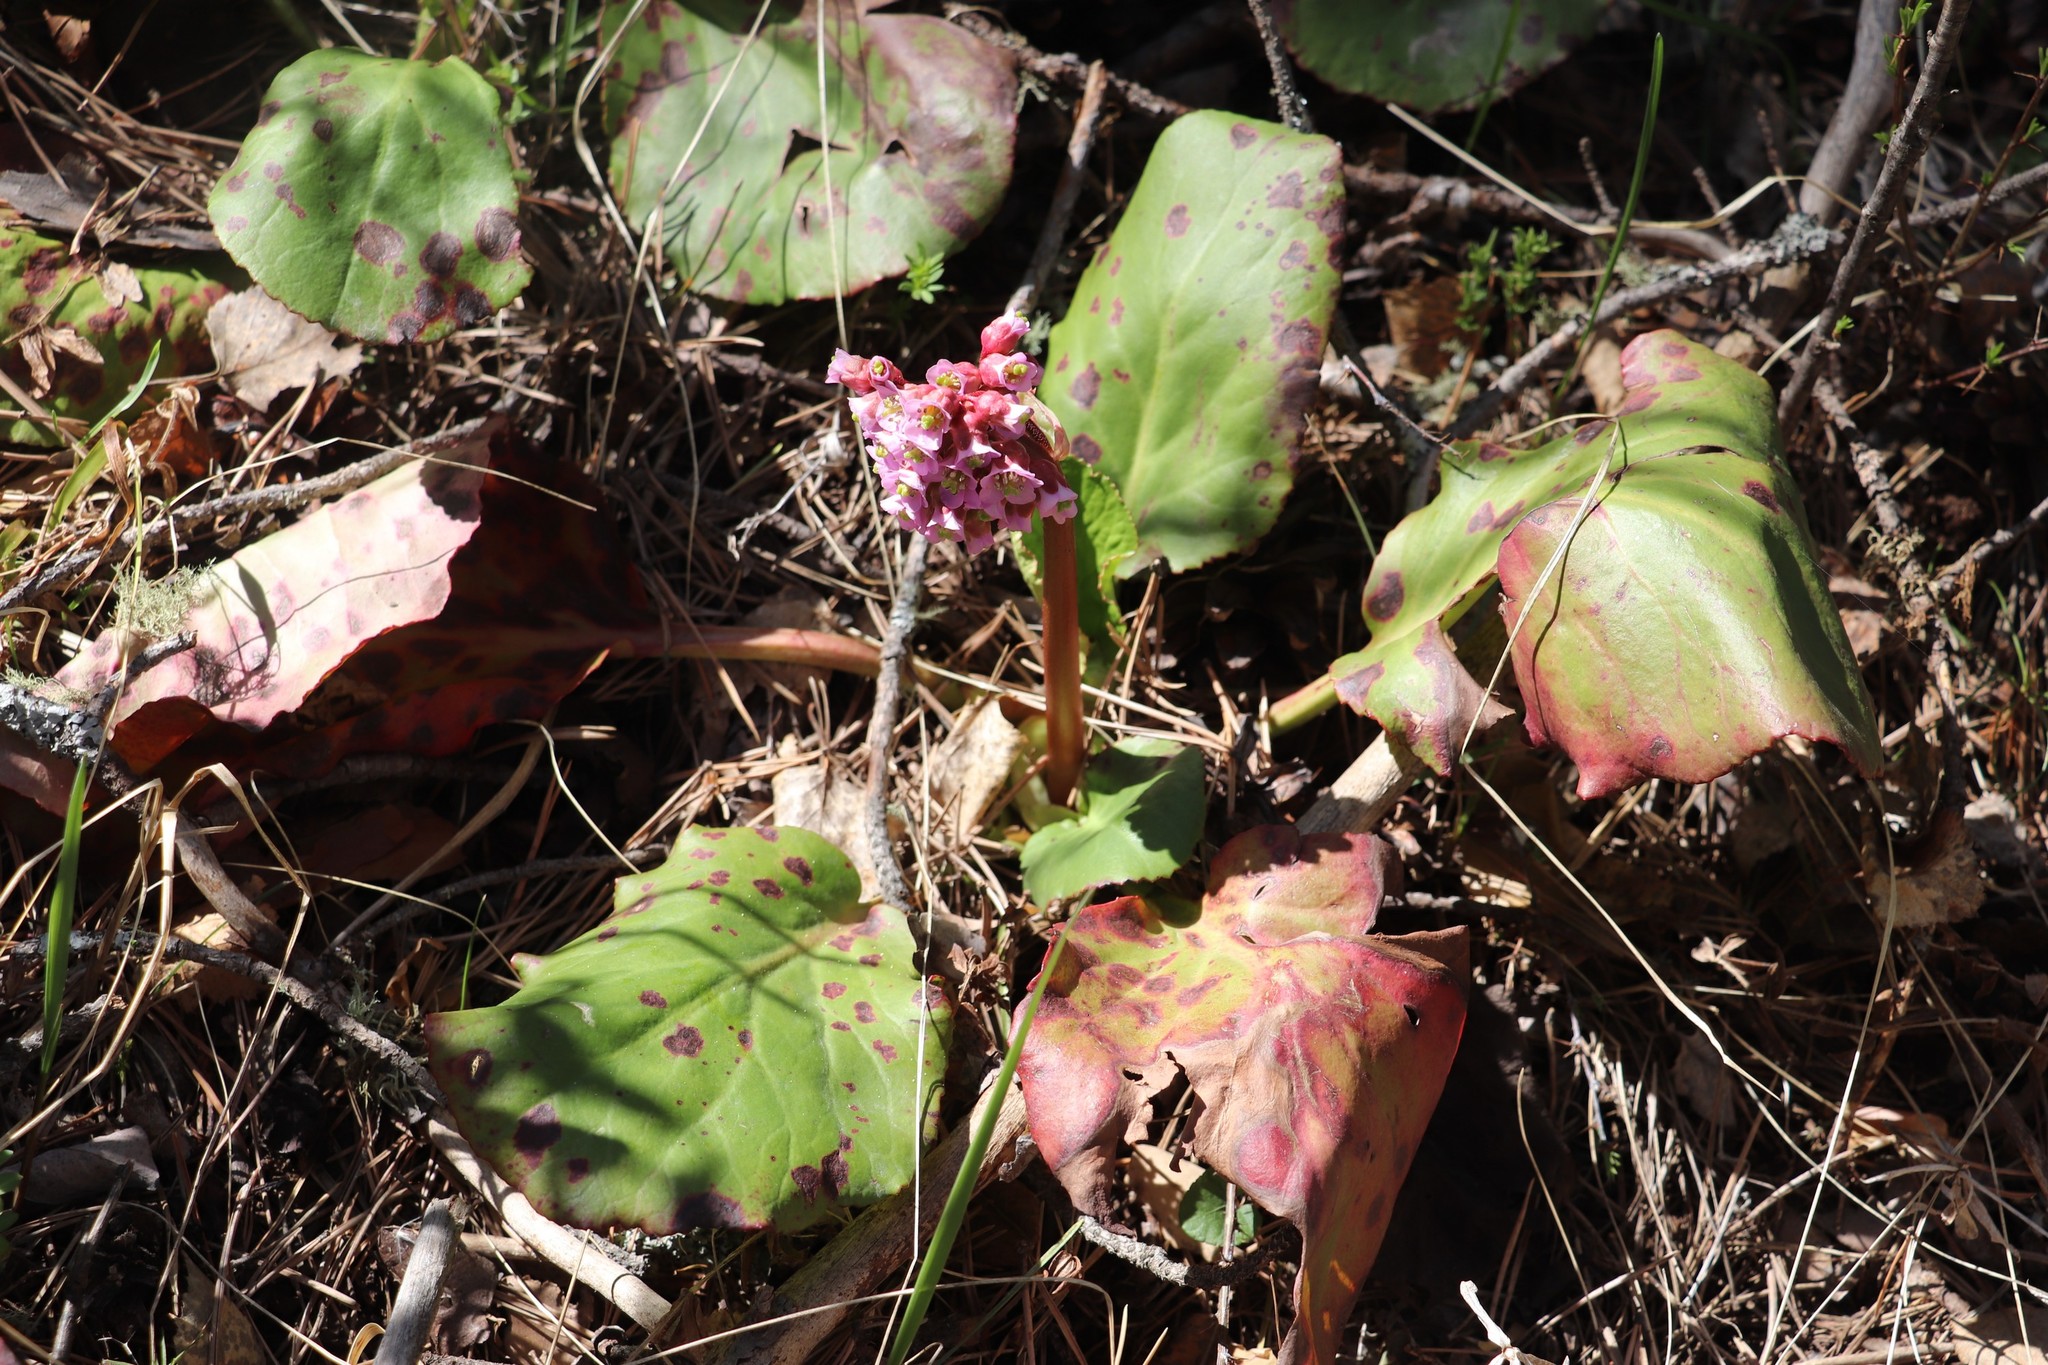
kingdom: Plantae
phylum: Tracheophyta
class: Magnoliopsida
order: Saxifragales
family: Saxifragaceae
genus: Bergenia
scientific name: Bergenia crassifolia
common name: Elephant-ears
